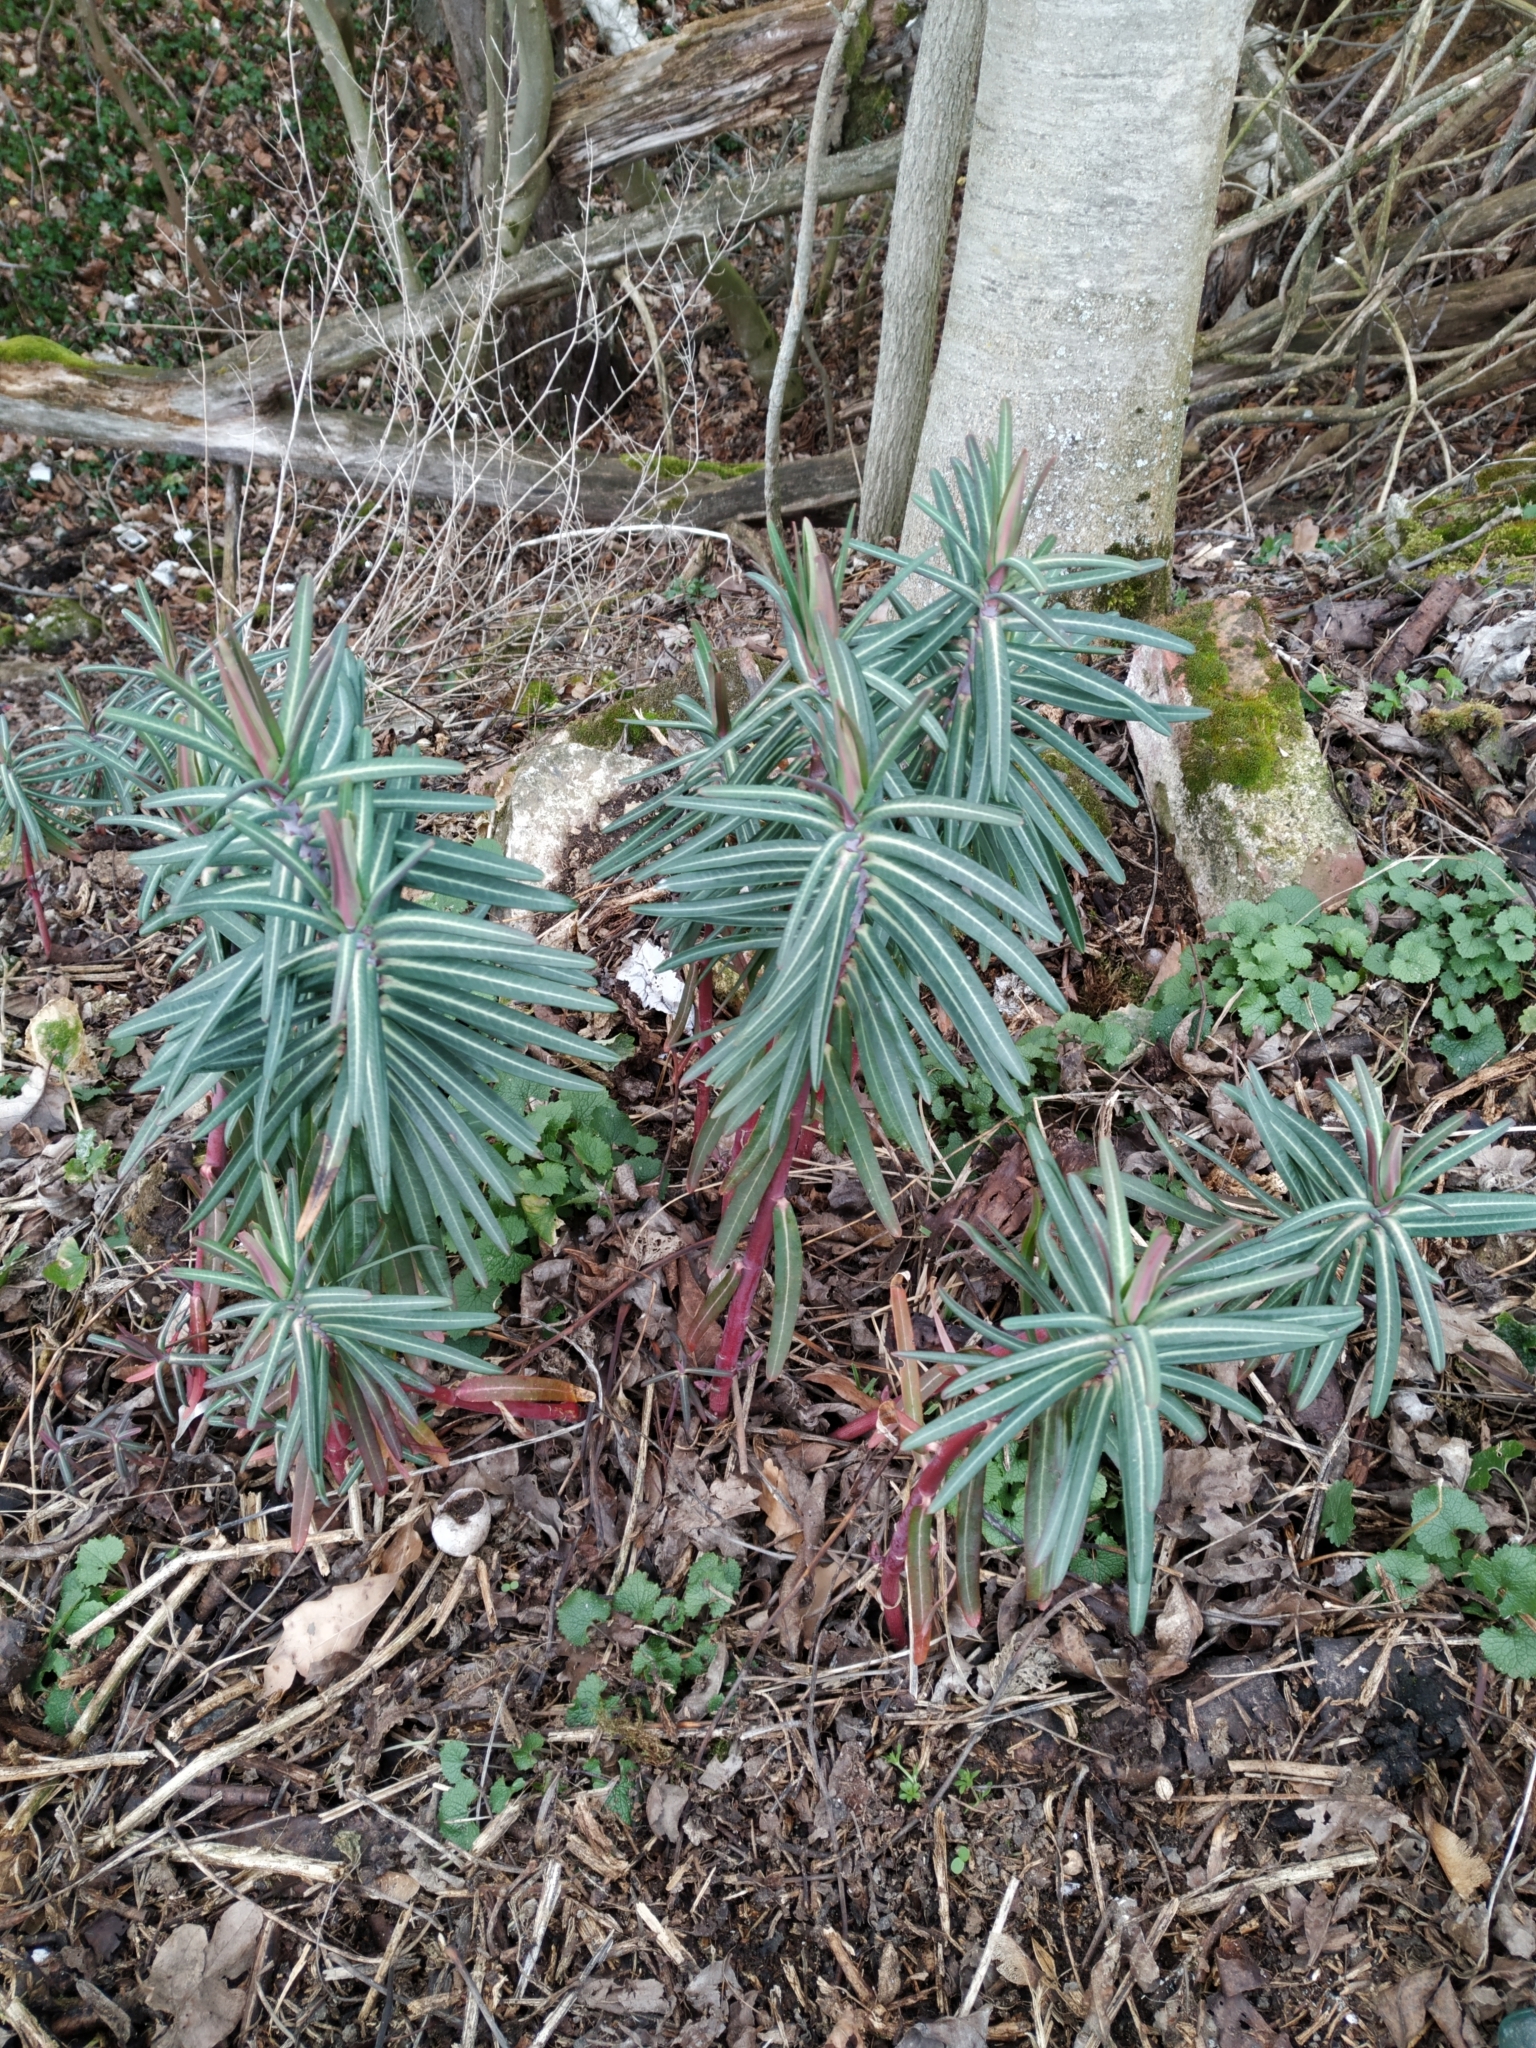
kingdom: Plantae
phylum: Tracheophyta
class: Magnoliopsida
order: Malpighiales
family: Euphorbiaceae
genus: Euphorbia
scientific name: Euphorbia lathyris
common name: Caper spurge
